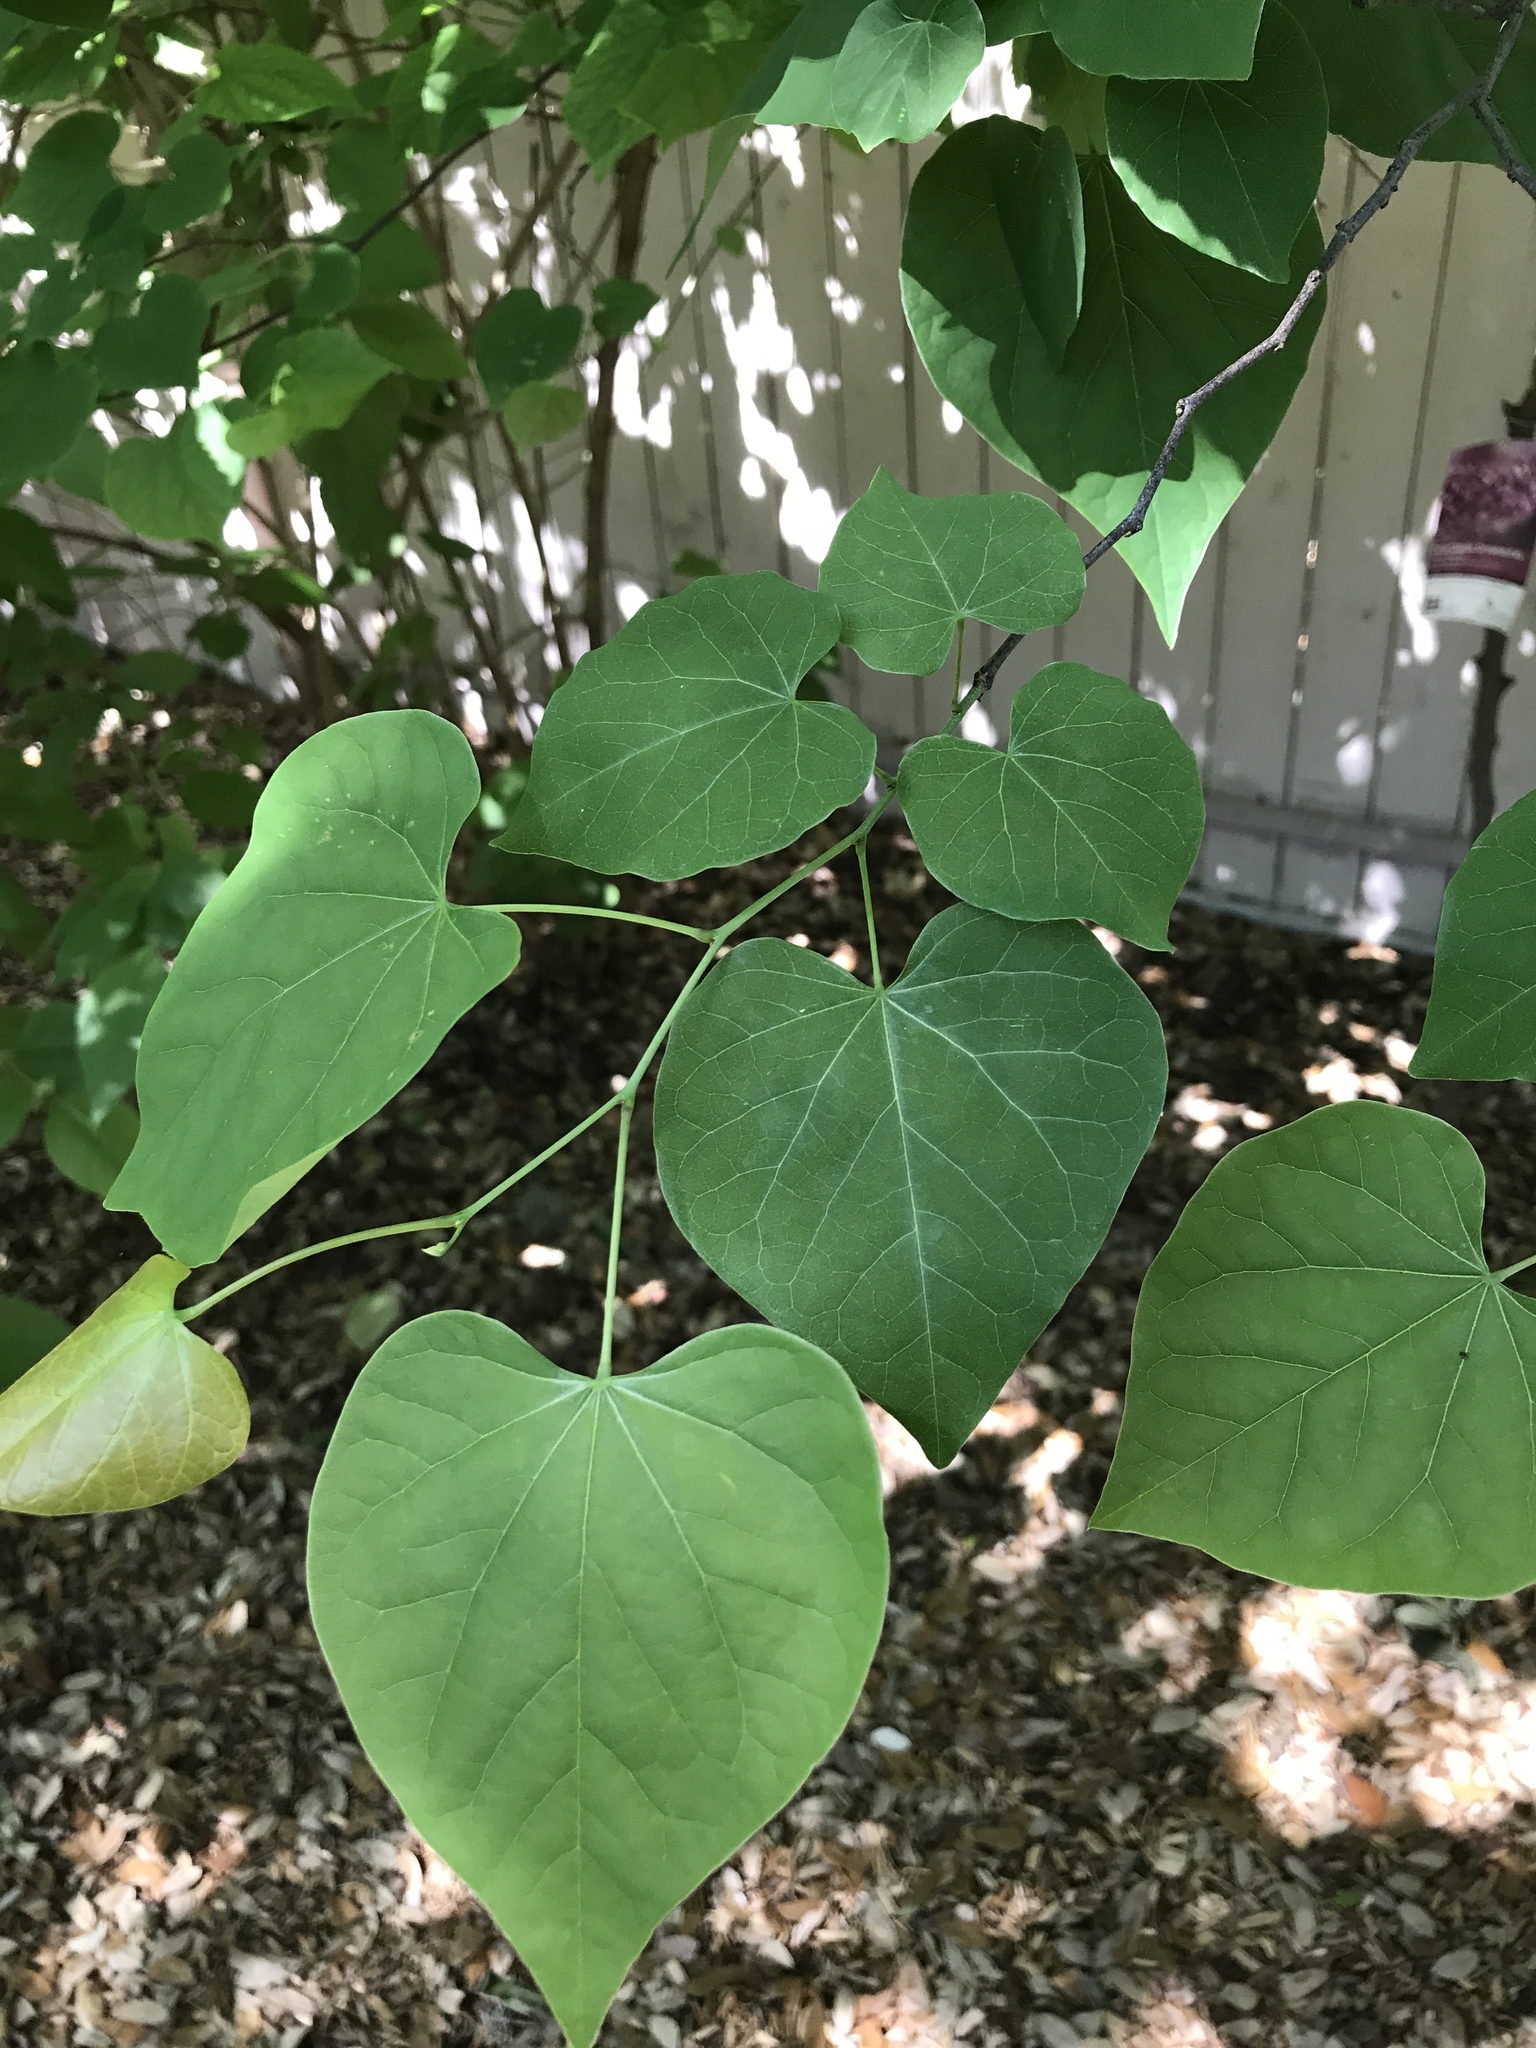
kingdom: Plantae
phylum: Tracheophyta
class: Magnoliopsida
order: Fabales
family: Fabaceae
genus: Cercis
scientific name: Cercis canadensis
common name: Eastern redbud
